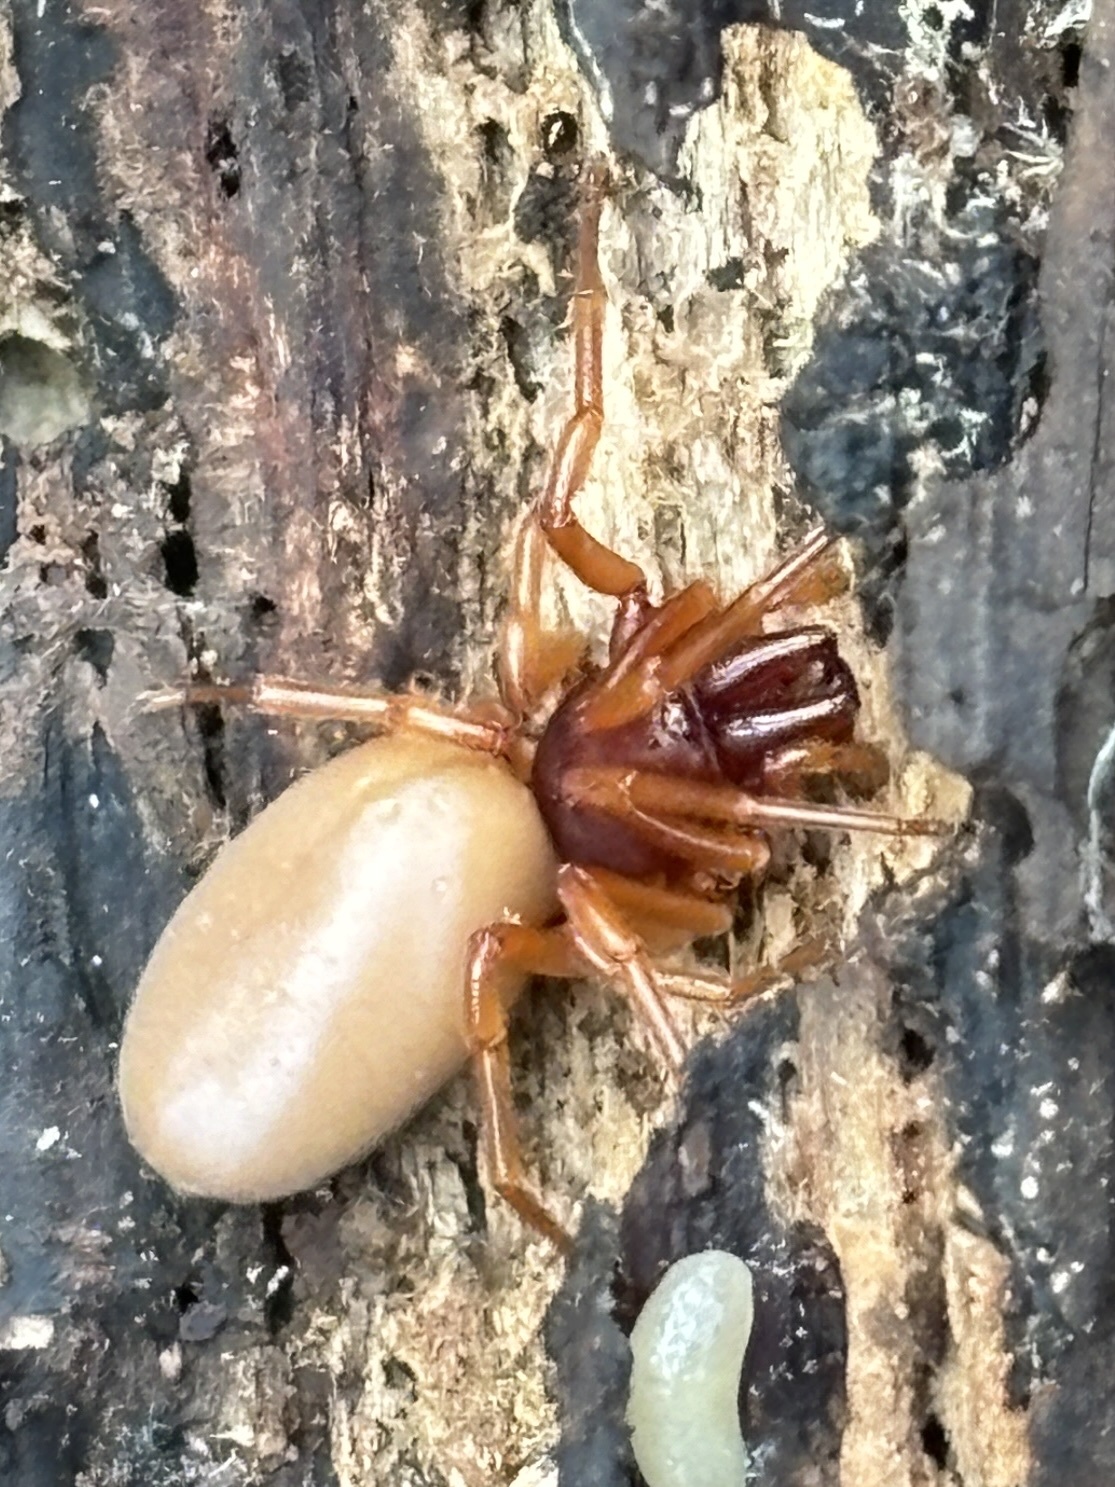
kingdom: Animalia
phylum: Arthropoda
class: Arachnida
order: Araneae
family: Dysderidae
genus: Dysdera
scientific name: Dysdera crocata
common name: Woodlouse spider
